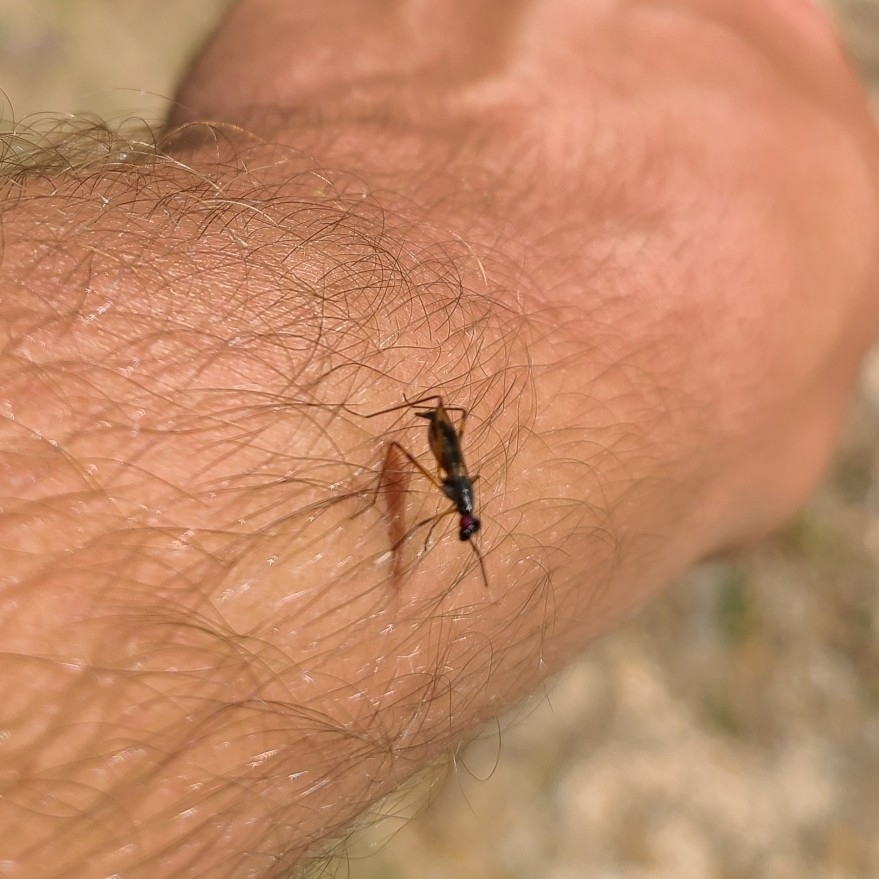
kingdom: Animalia
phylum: Arthropoda
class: Insecta
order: Diptera
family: Micropezidae
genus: Rainieria
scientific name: Rainieria antennaepes
